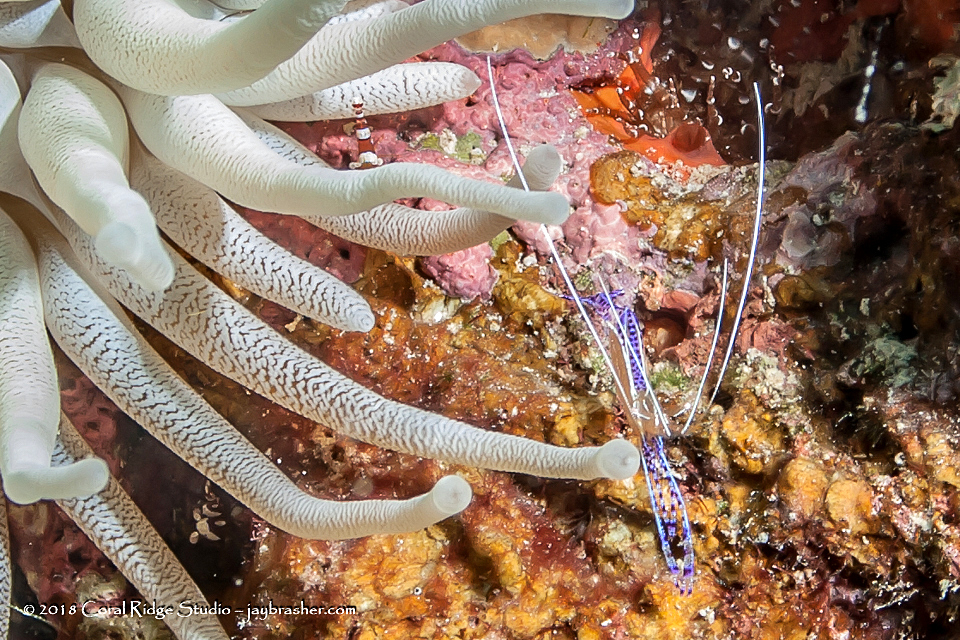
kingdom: Animalia
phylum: Arthropoda
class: Malacostraca
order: Decapoda
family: Palaemonidae
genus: Ancylomenes
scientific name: Ancylomenes pedersoni
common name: Pederson's cleaning shrimp
